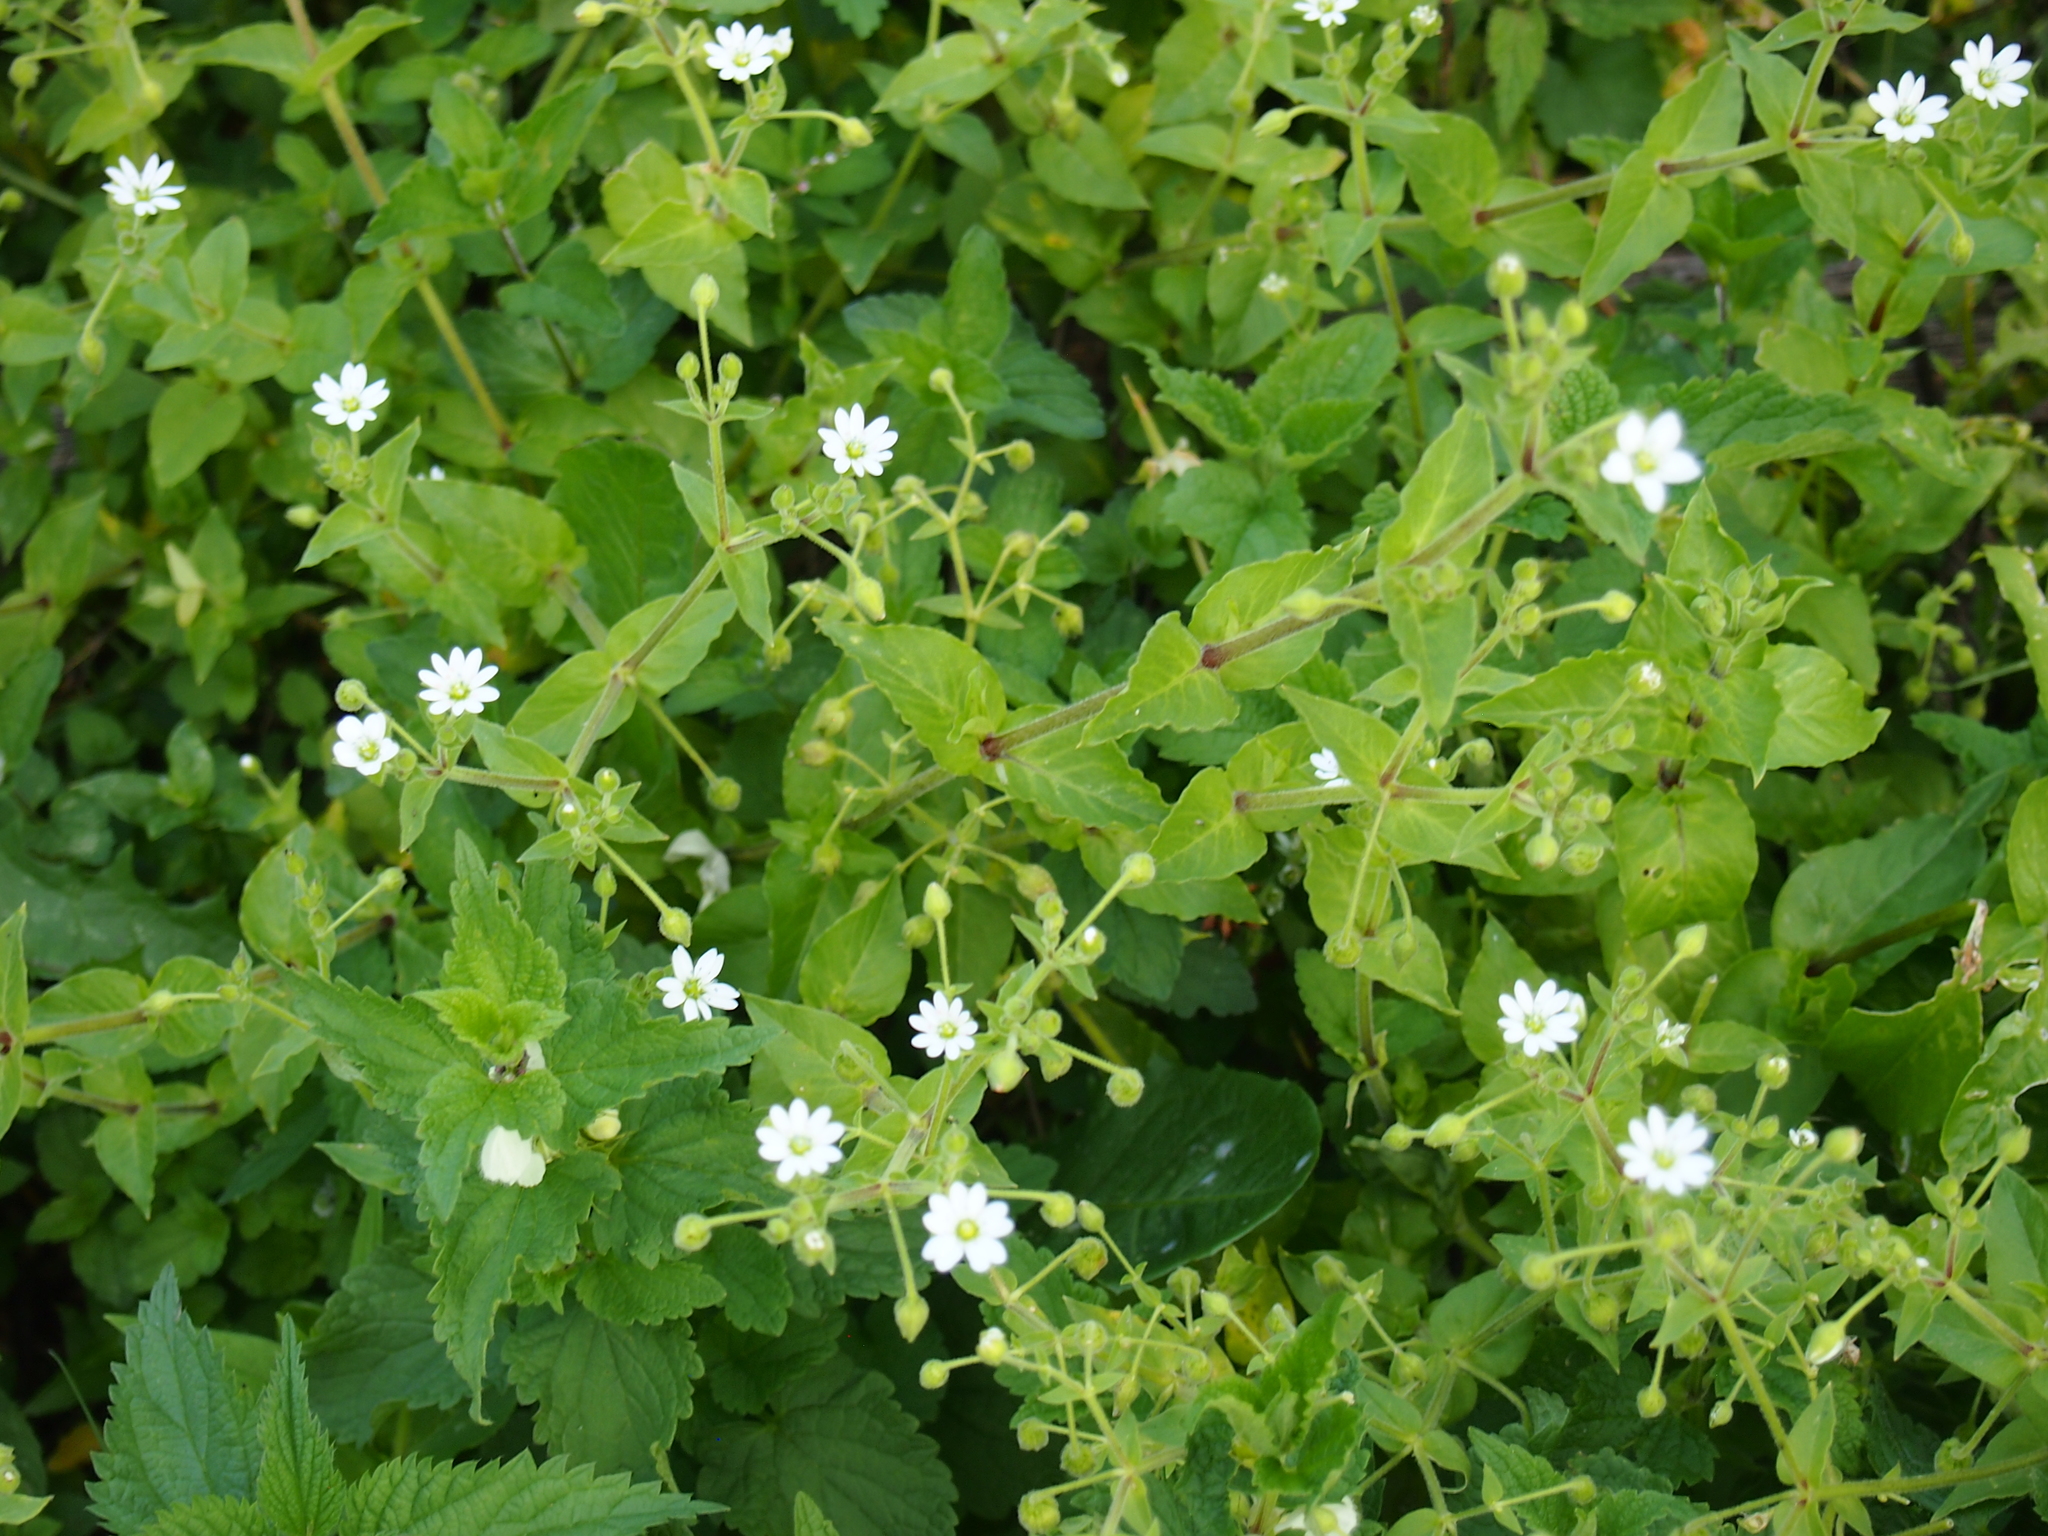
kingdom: Plantae
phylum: Tracheophyta
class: Magnoliopsida
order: Caryophyllales
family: Caryophyllaceae
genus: Stellaria
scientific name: Stellaria aquatica
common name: Water chickweed
